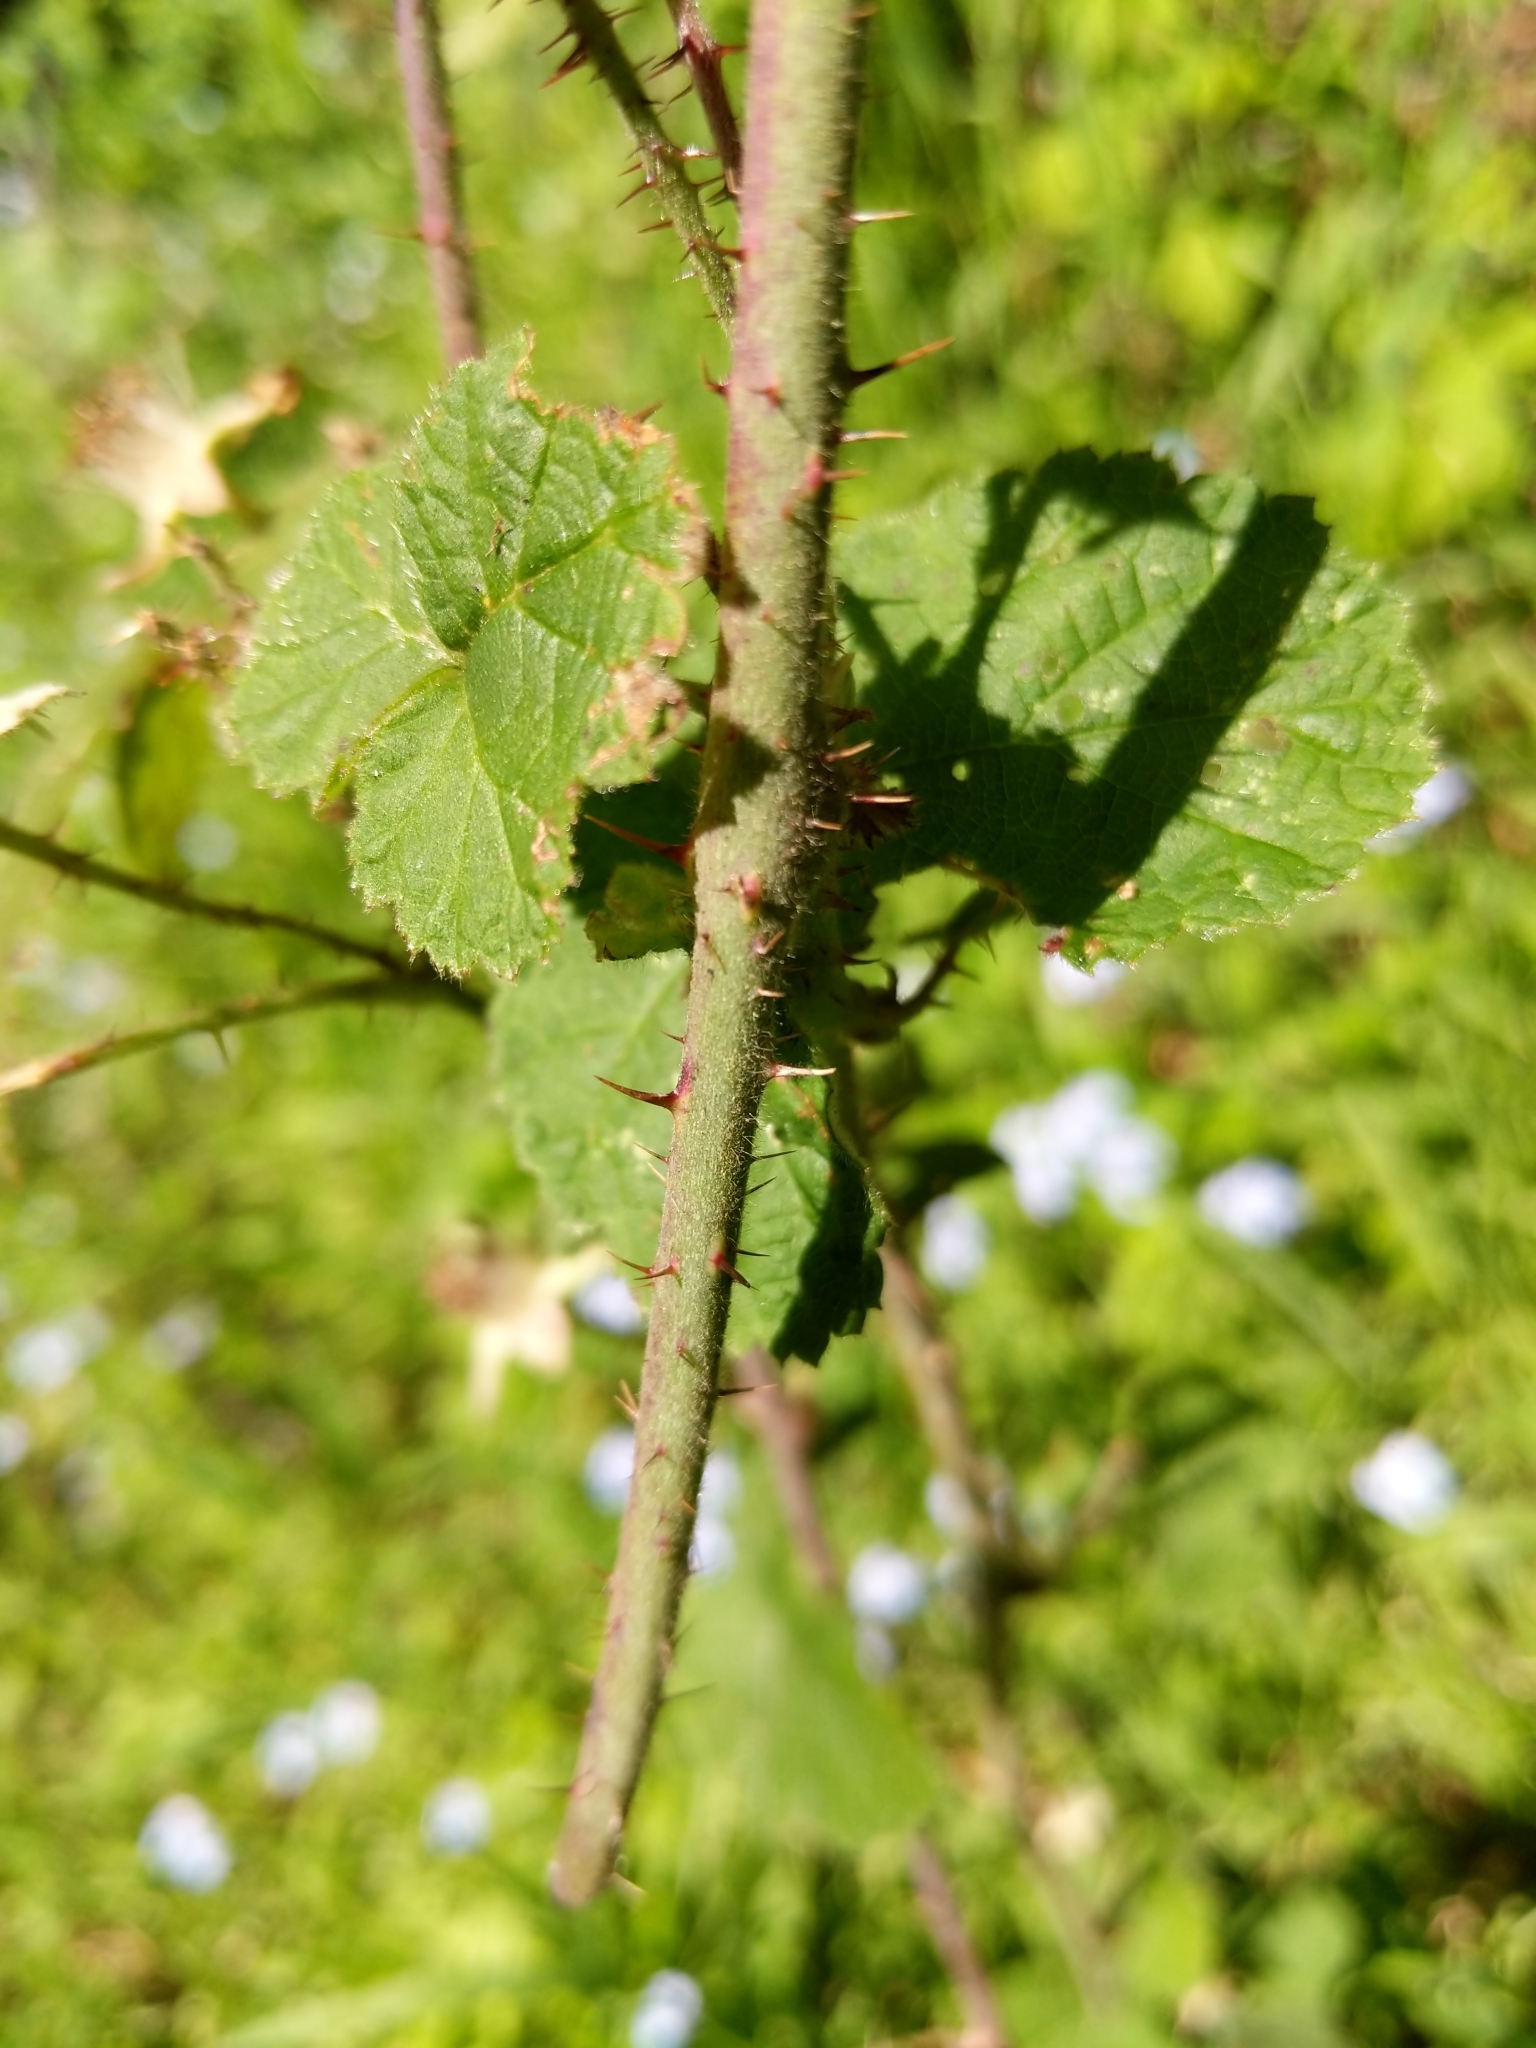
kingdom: Plantae
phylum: Tracheophyta
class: Magnoliopsida
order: Rosales
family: Rosaceae
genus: Rubus
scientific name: Rubus ursinus
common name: Pacific blackberry
